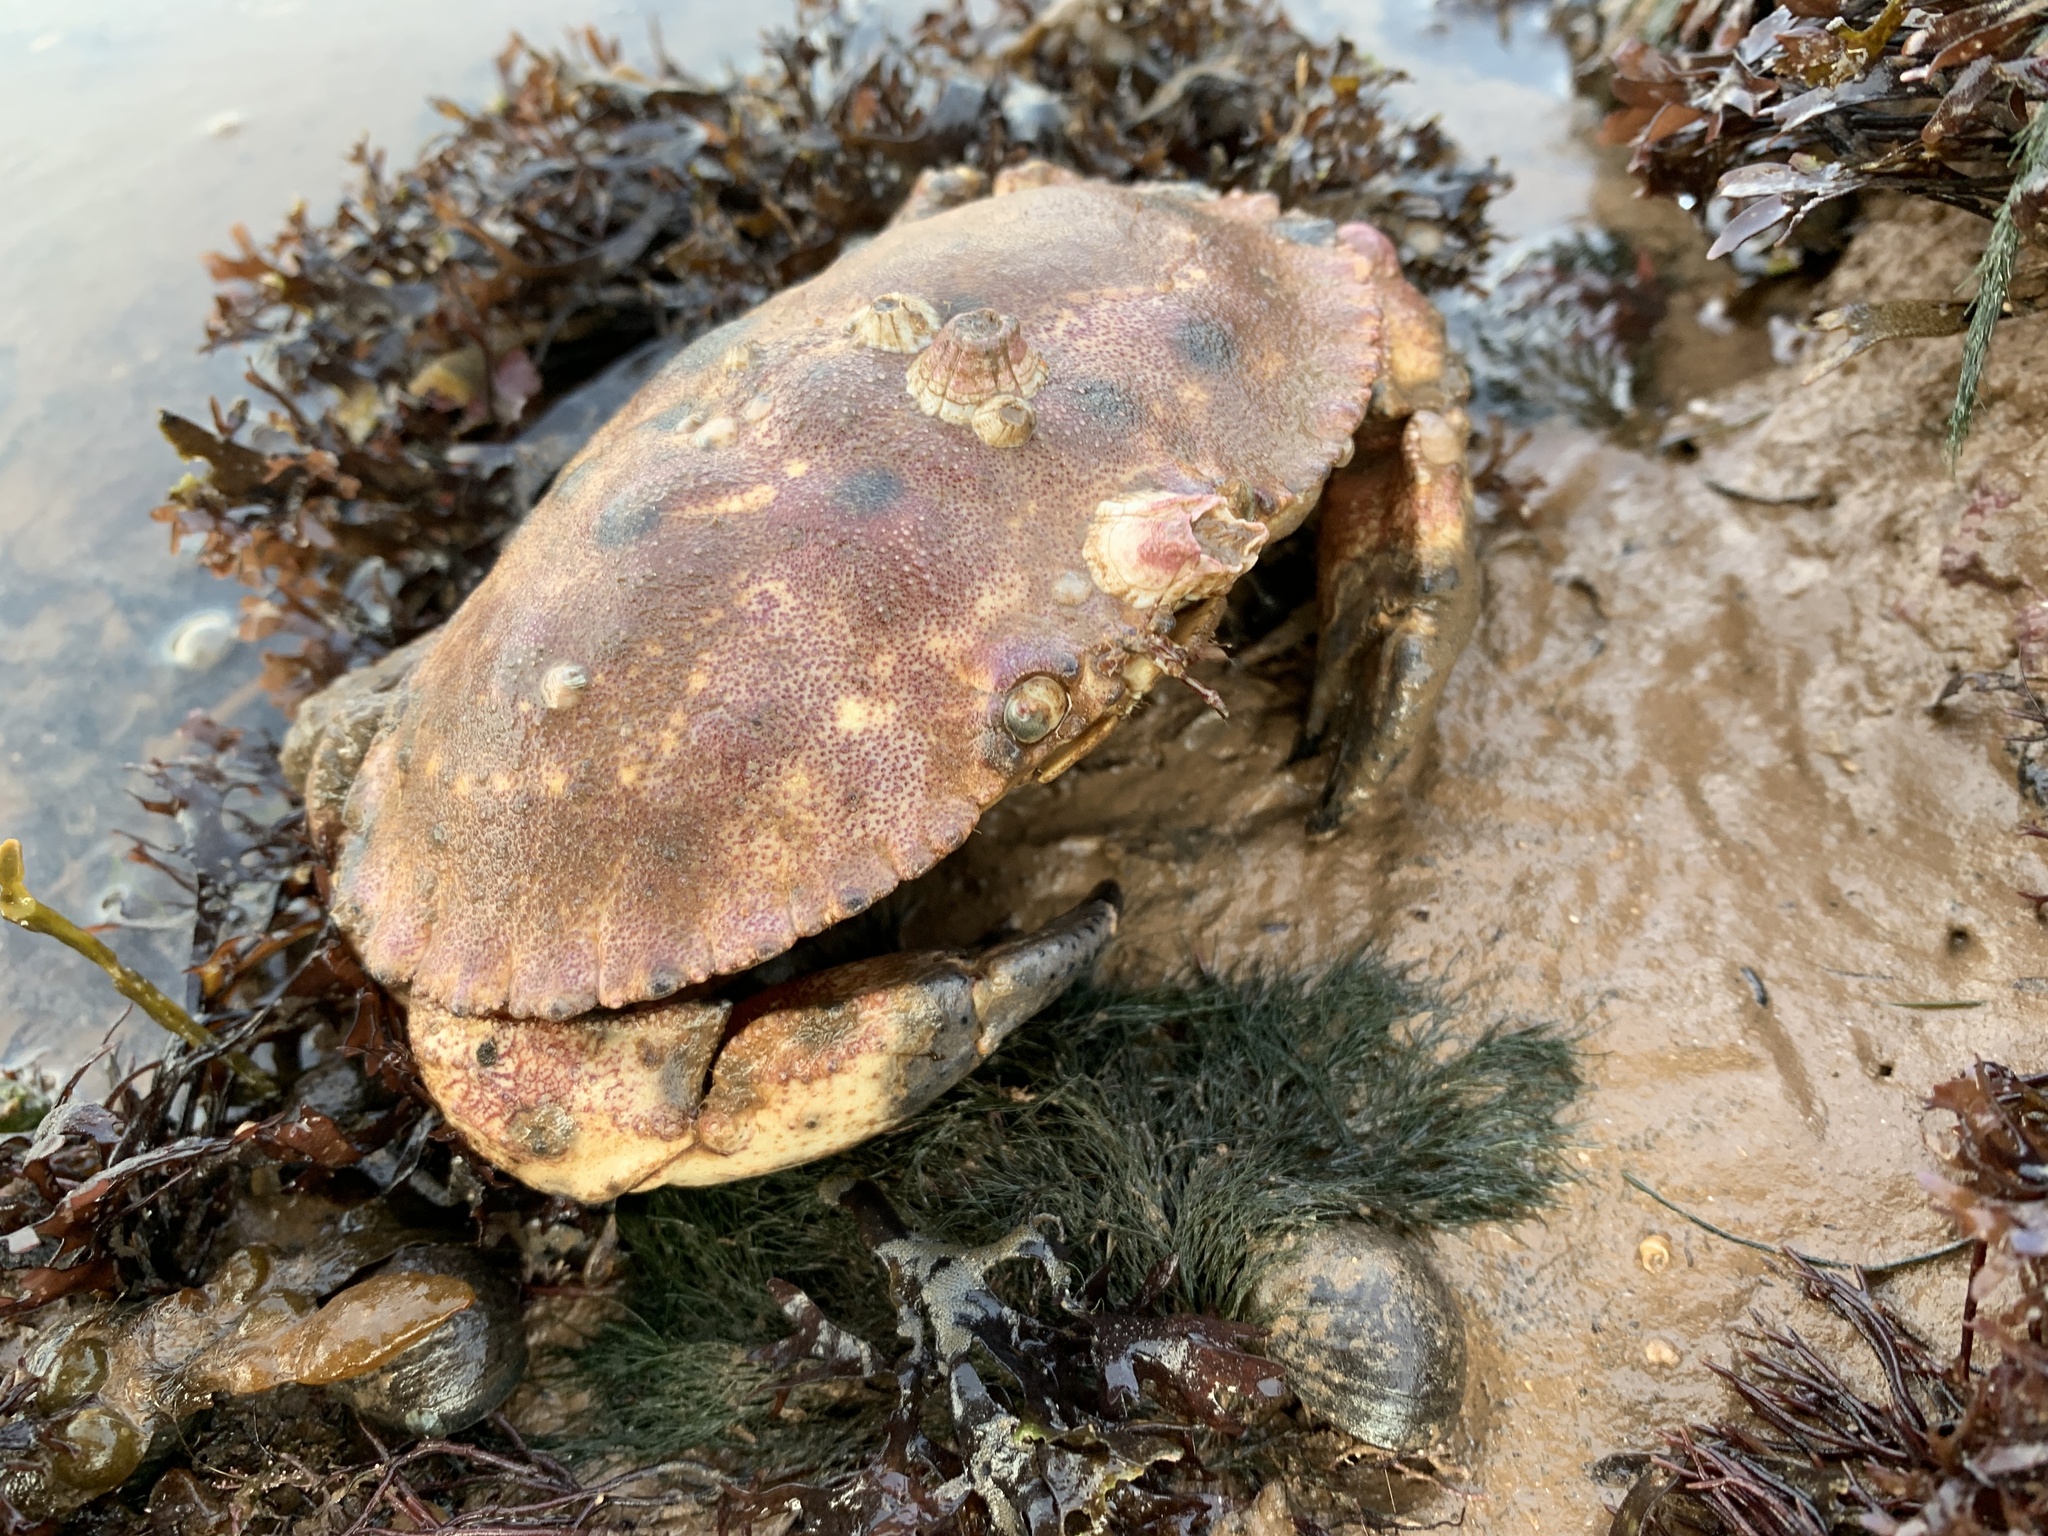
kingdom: Animalia
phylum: Arthropoda
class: Malacostraca
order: Decapoda
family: Cancridae
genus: Cancer
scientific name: Cancer borealis
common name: Jonah crab
